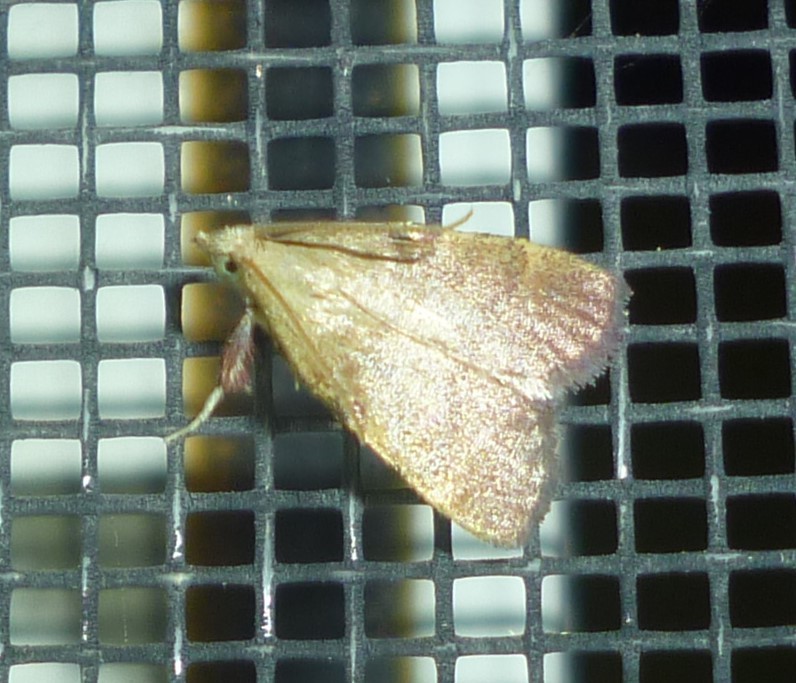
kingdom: Animalia
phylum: Arthropoda
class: Insecta
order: Lepidoptera
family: Pyralidae
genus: Condylolomia
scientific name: Condylolomia participialis
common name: Drab condylolomia moth
